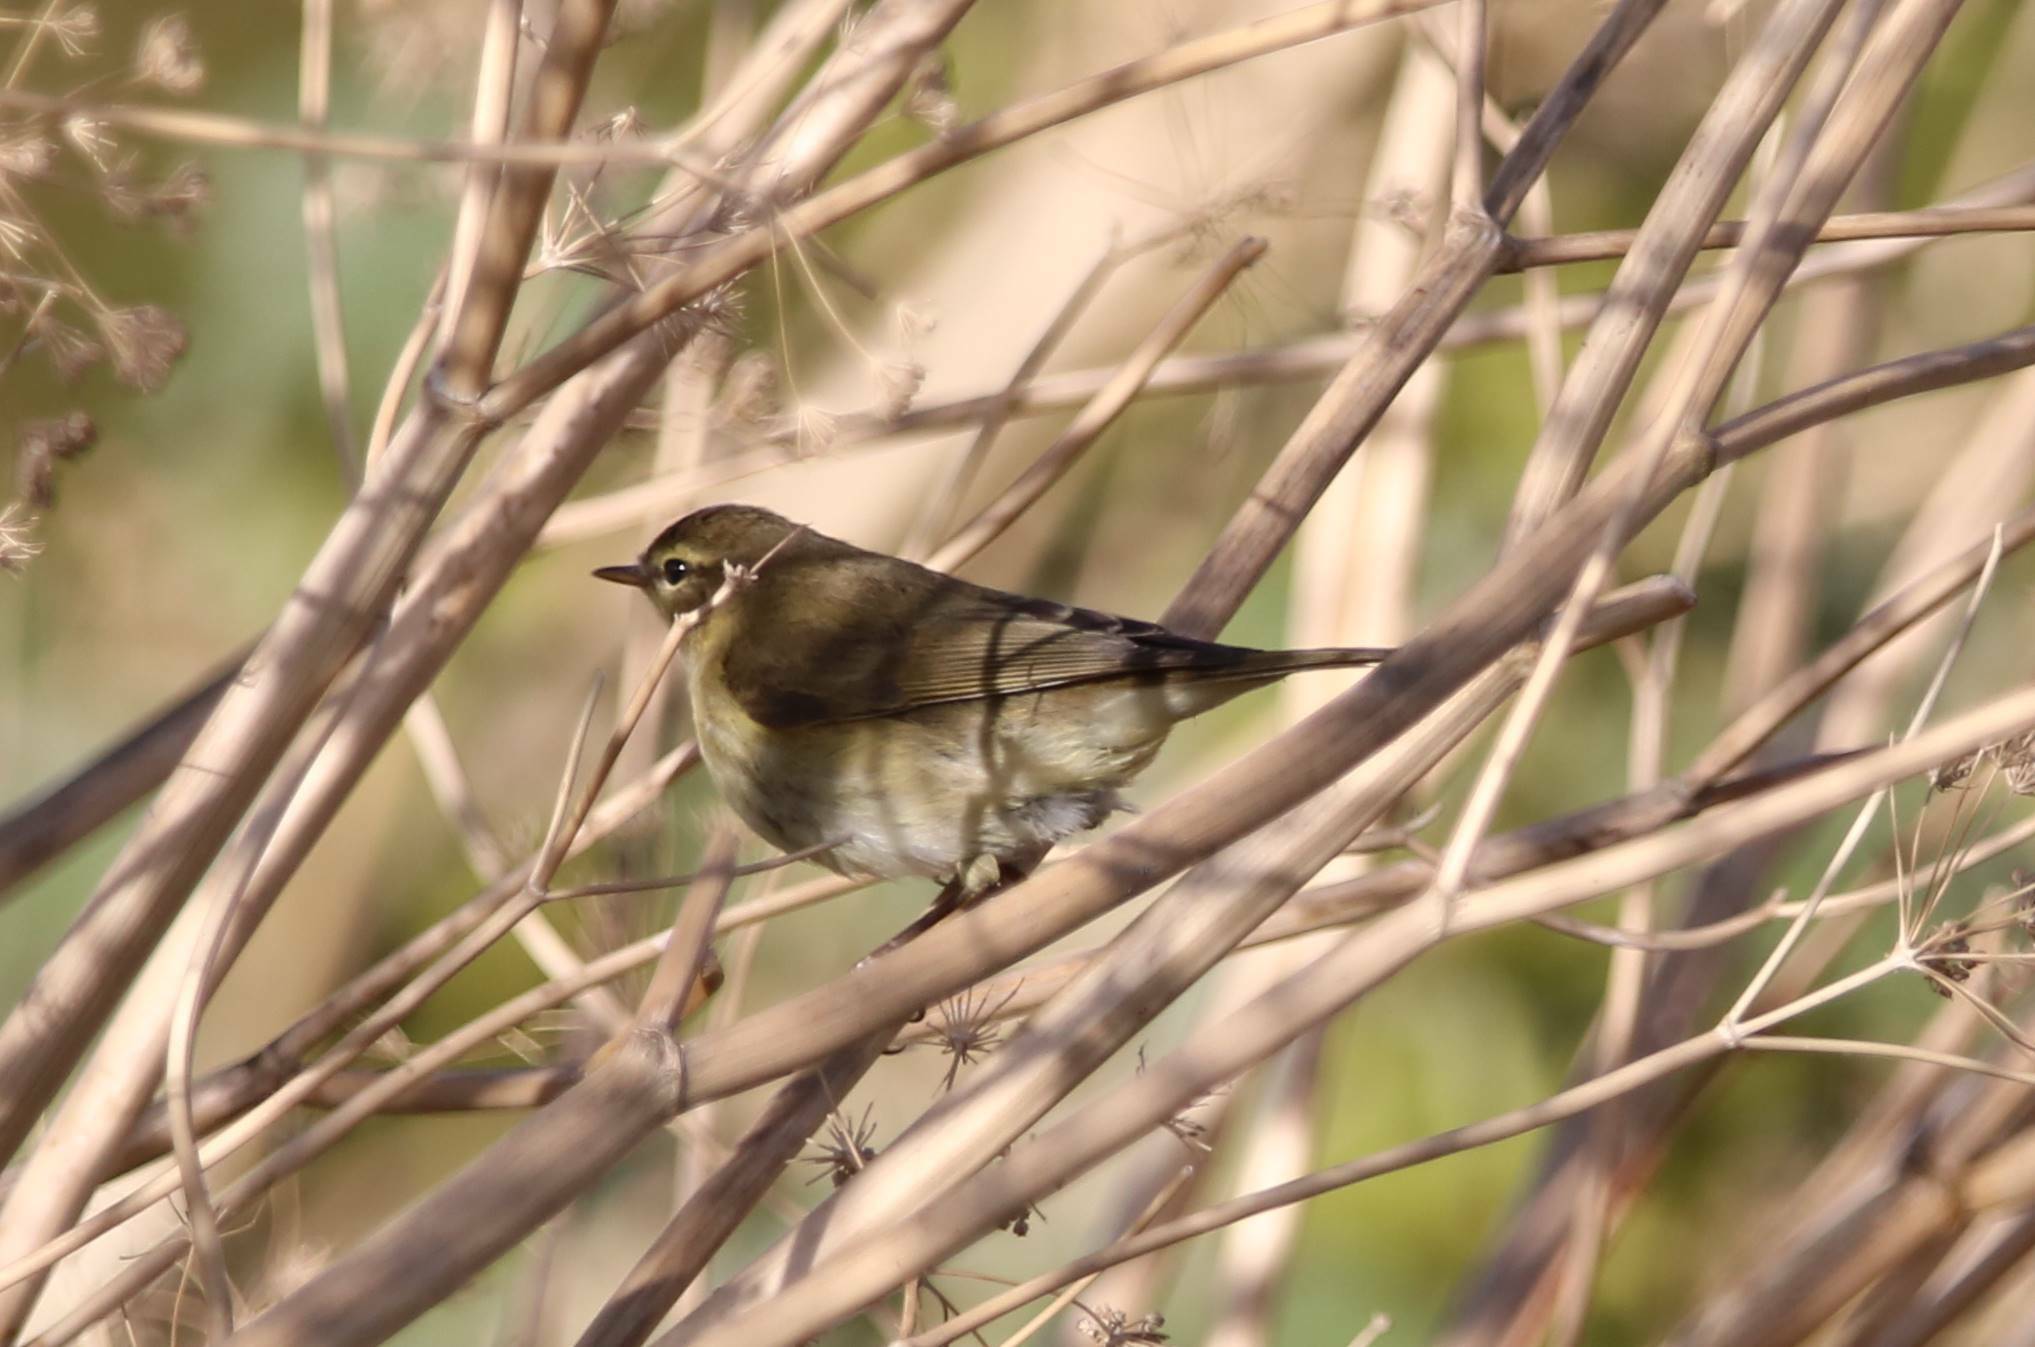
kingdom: Animalia
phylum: Chordata
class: Aves
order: Passeriformes
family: Phylloscopidae
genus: Phylloscopus
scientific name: Phylloscopus collybita
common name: Common chiffchaff
